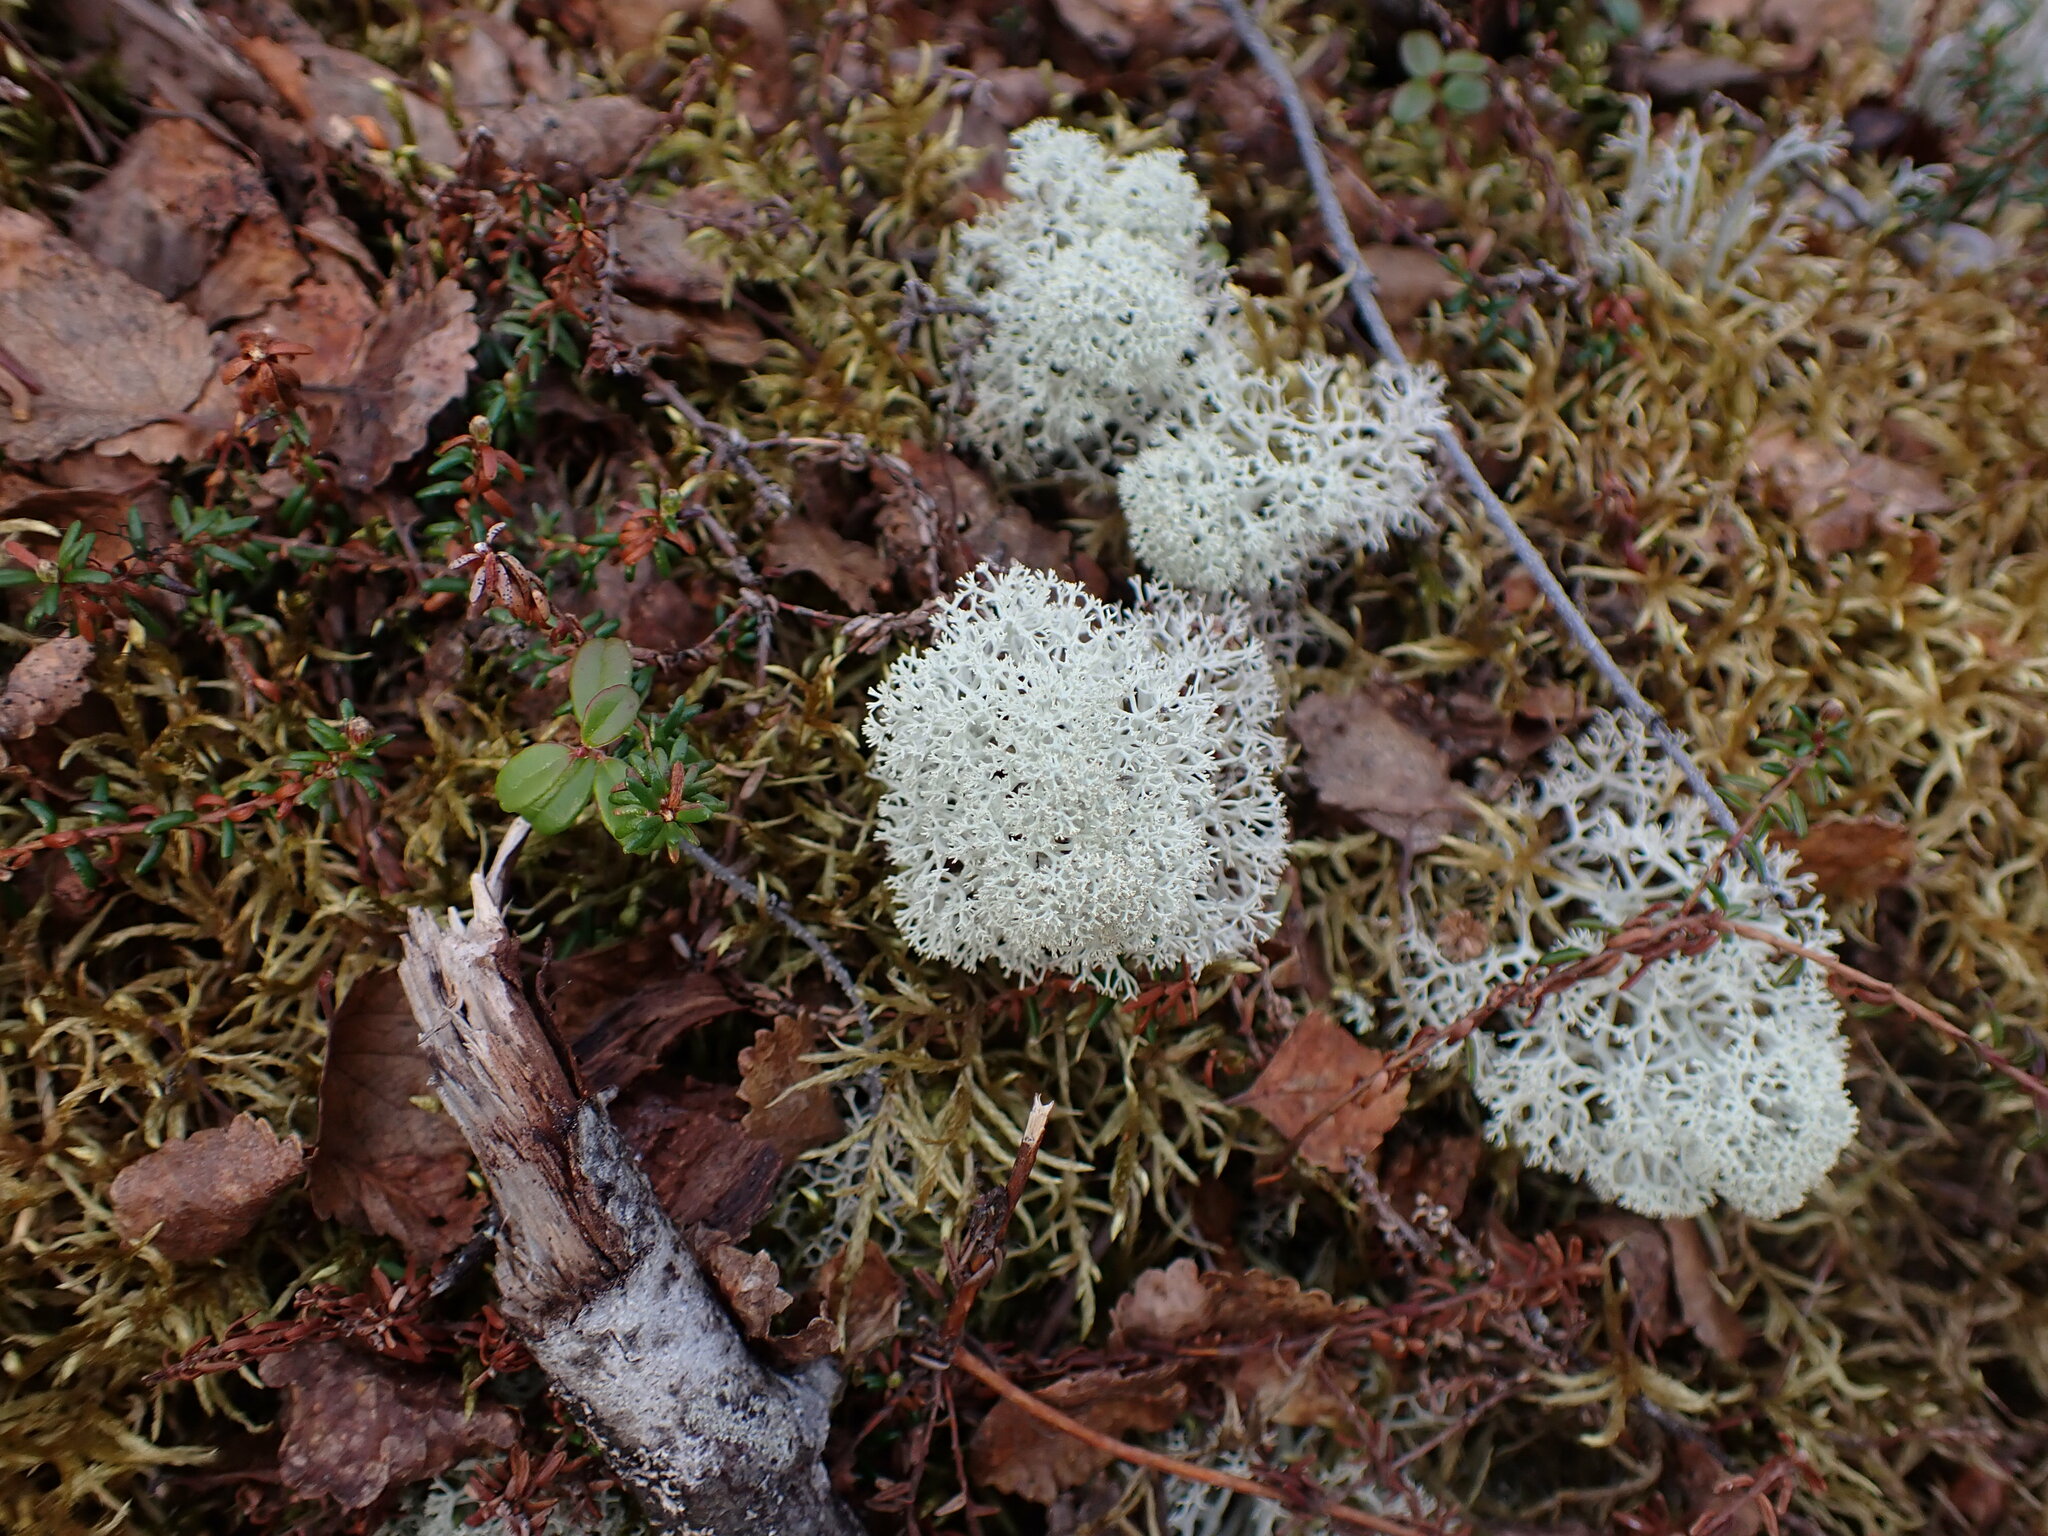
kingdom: Fungi
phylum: Ascomycota
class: Lecanoromycetes
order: Lecanorales
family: Cladoniaceae
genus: Cladonia
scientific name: Cladonia stellaris
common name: Star-tipped reindeer lichen
